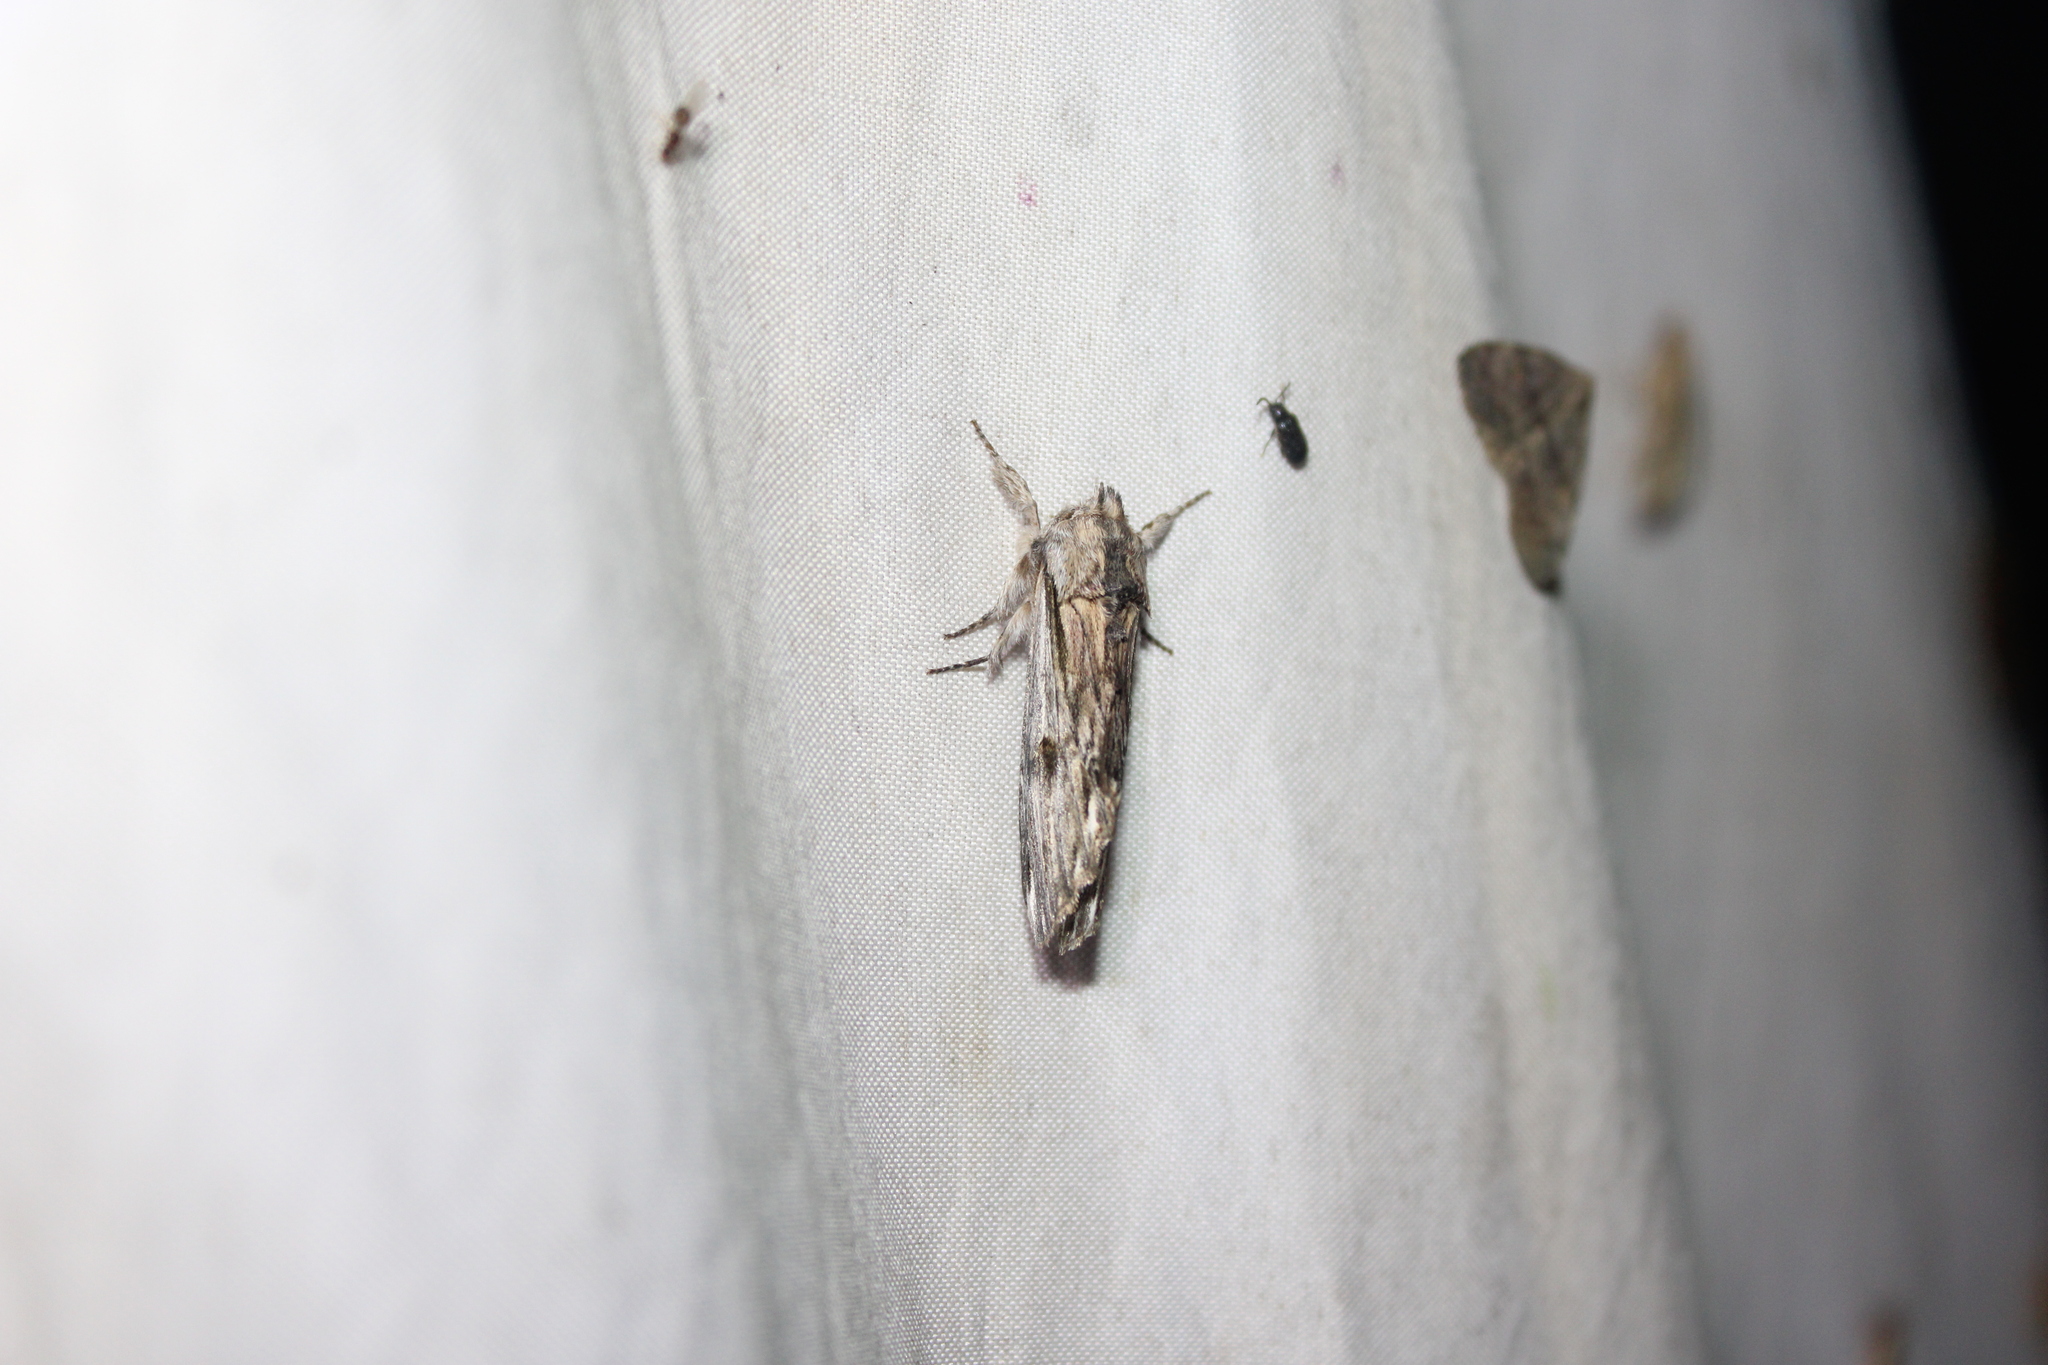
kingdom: Animalia
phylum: Arthropoda
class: Insecta
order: Lepidoptera
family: Notodontidae
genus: Oligocentria
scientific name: Oligocentria Ianassa lignicolor
